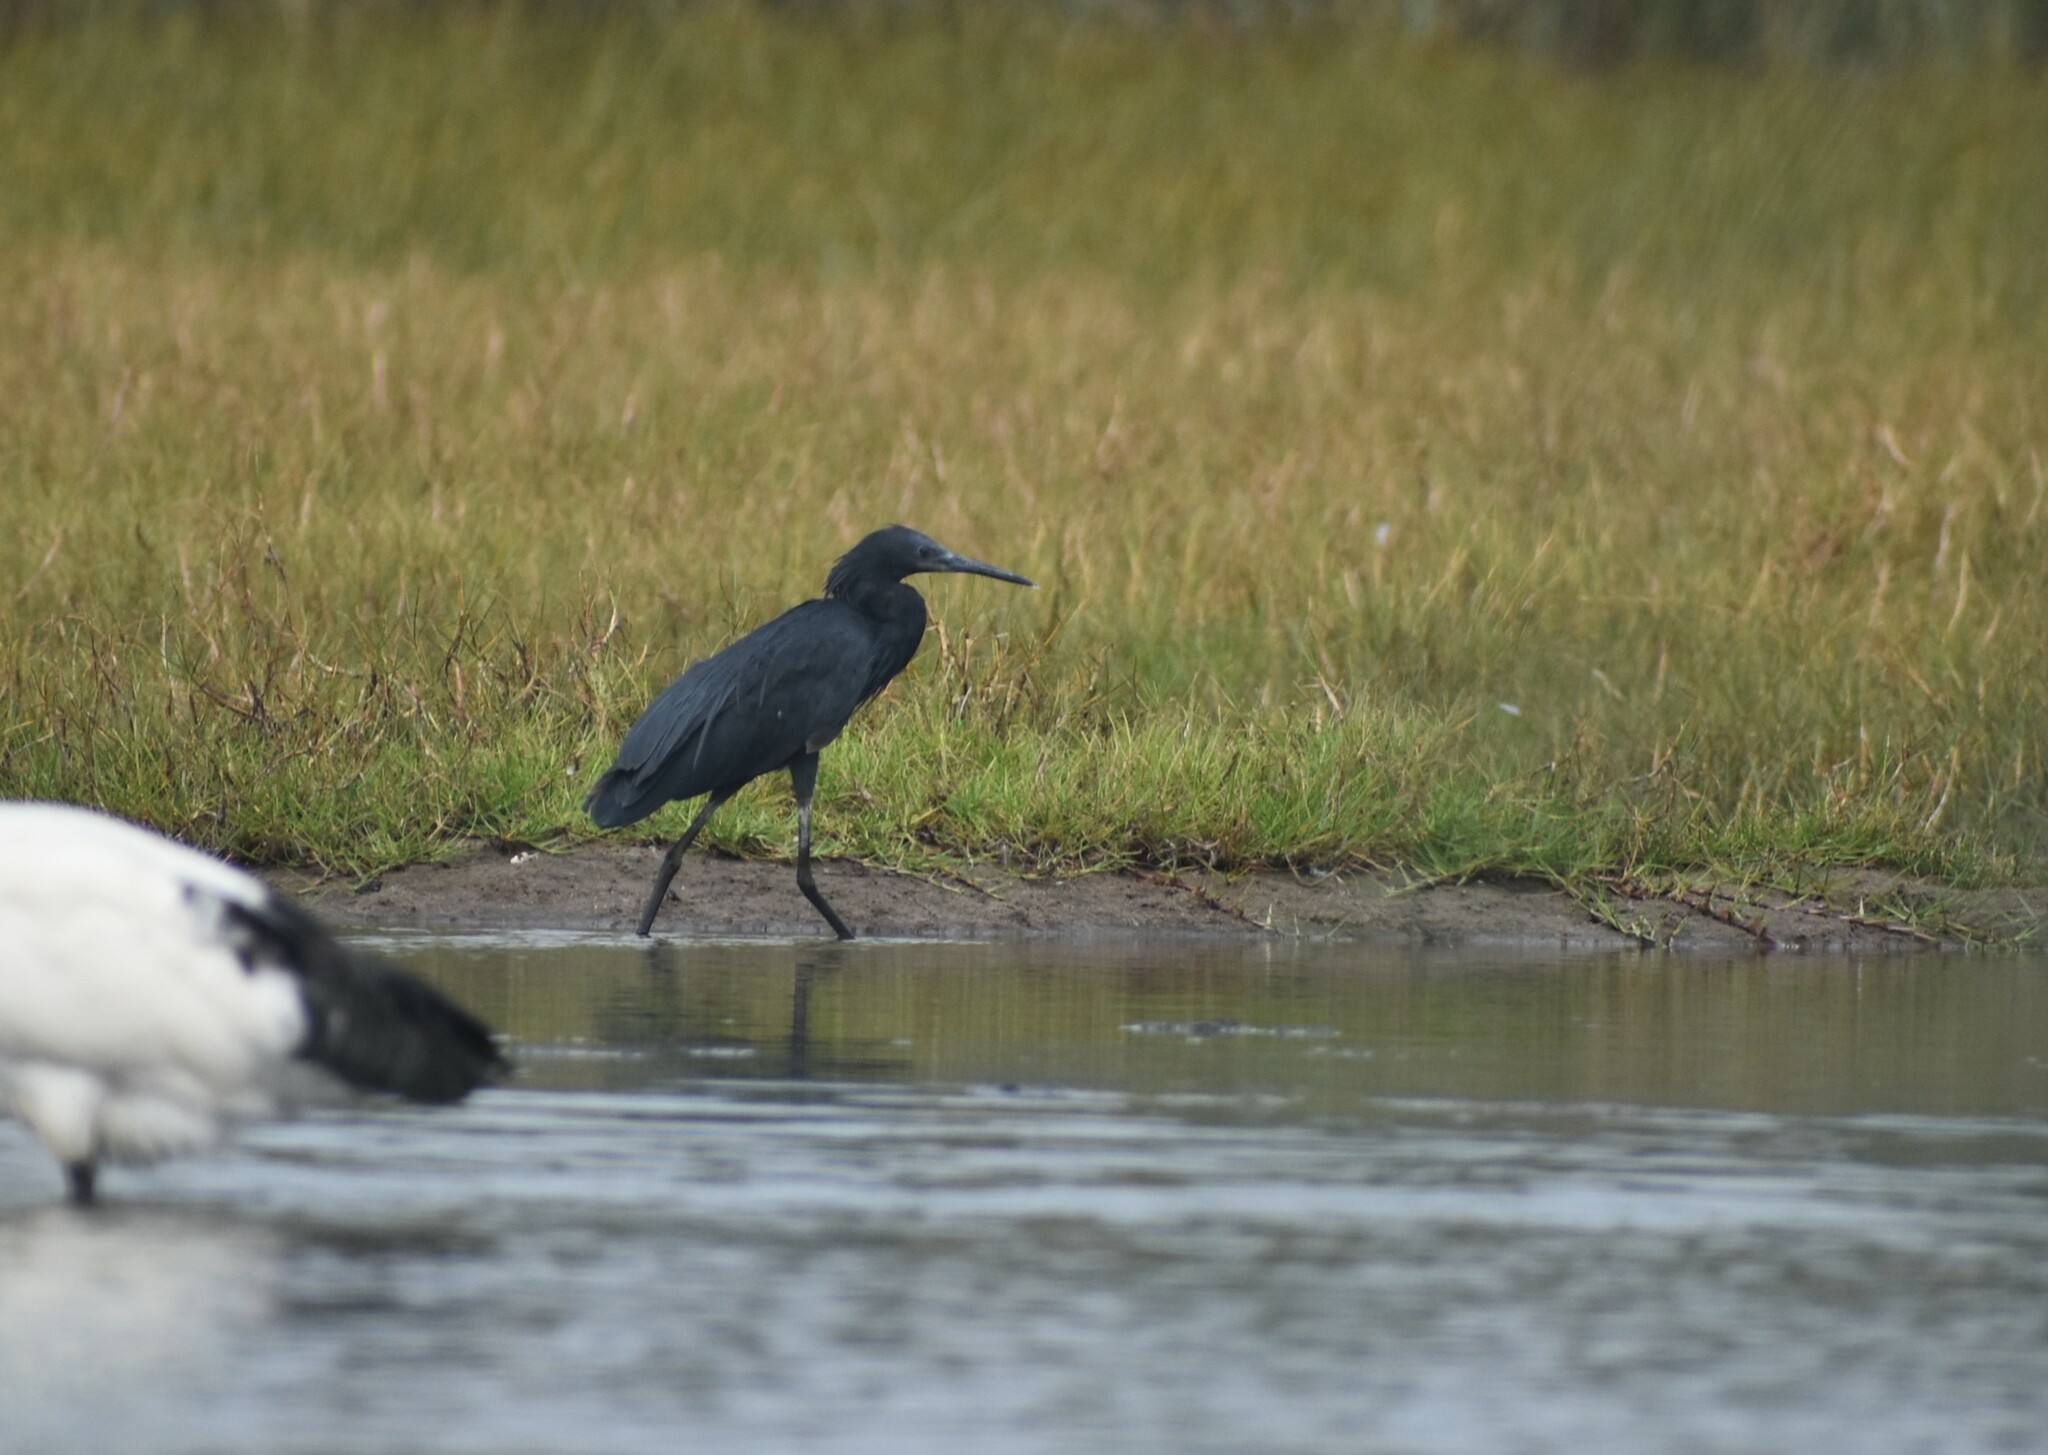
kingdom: Animalia
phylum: Chordata
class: Aves
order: Pelecaniformes
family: Ardeidae
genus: Egretta
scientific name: Egretta ardesiaca
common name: Black heron
